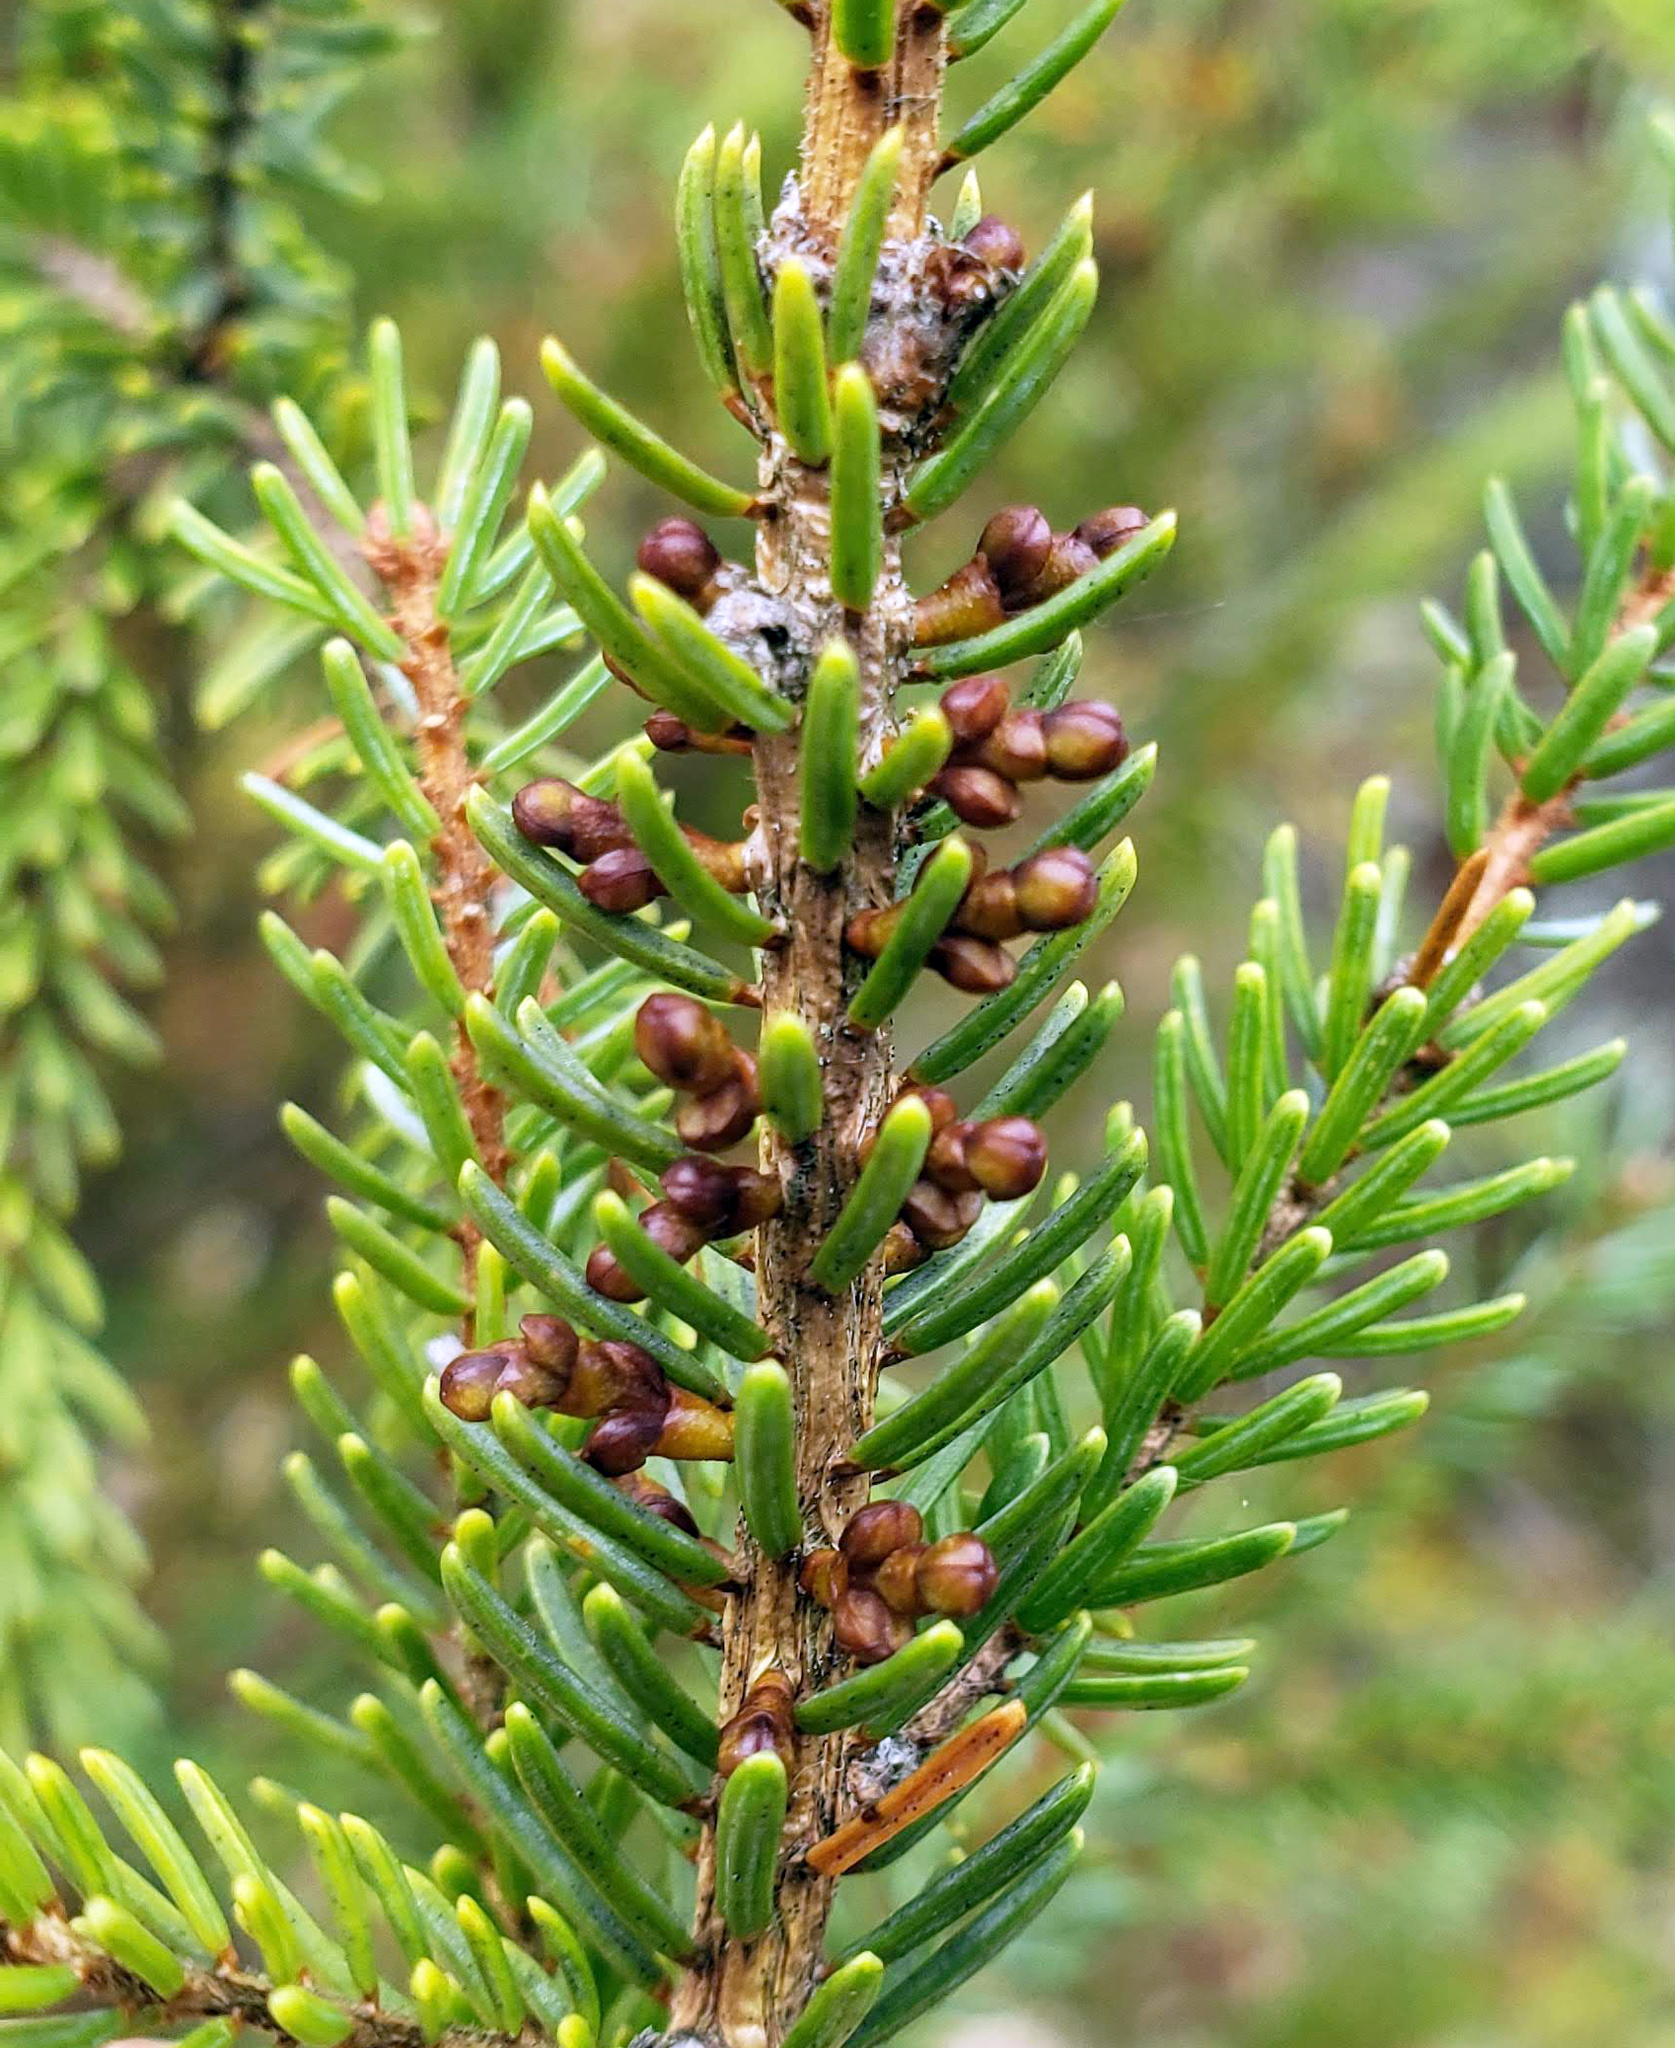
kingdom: Plantae
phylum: Tracheophyta
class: Magnoliopsida
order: Santalales
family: Viscaceae
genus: Arceuthobium
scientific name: Arceuthobium pusillum
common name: Dwarf-mistletoe
